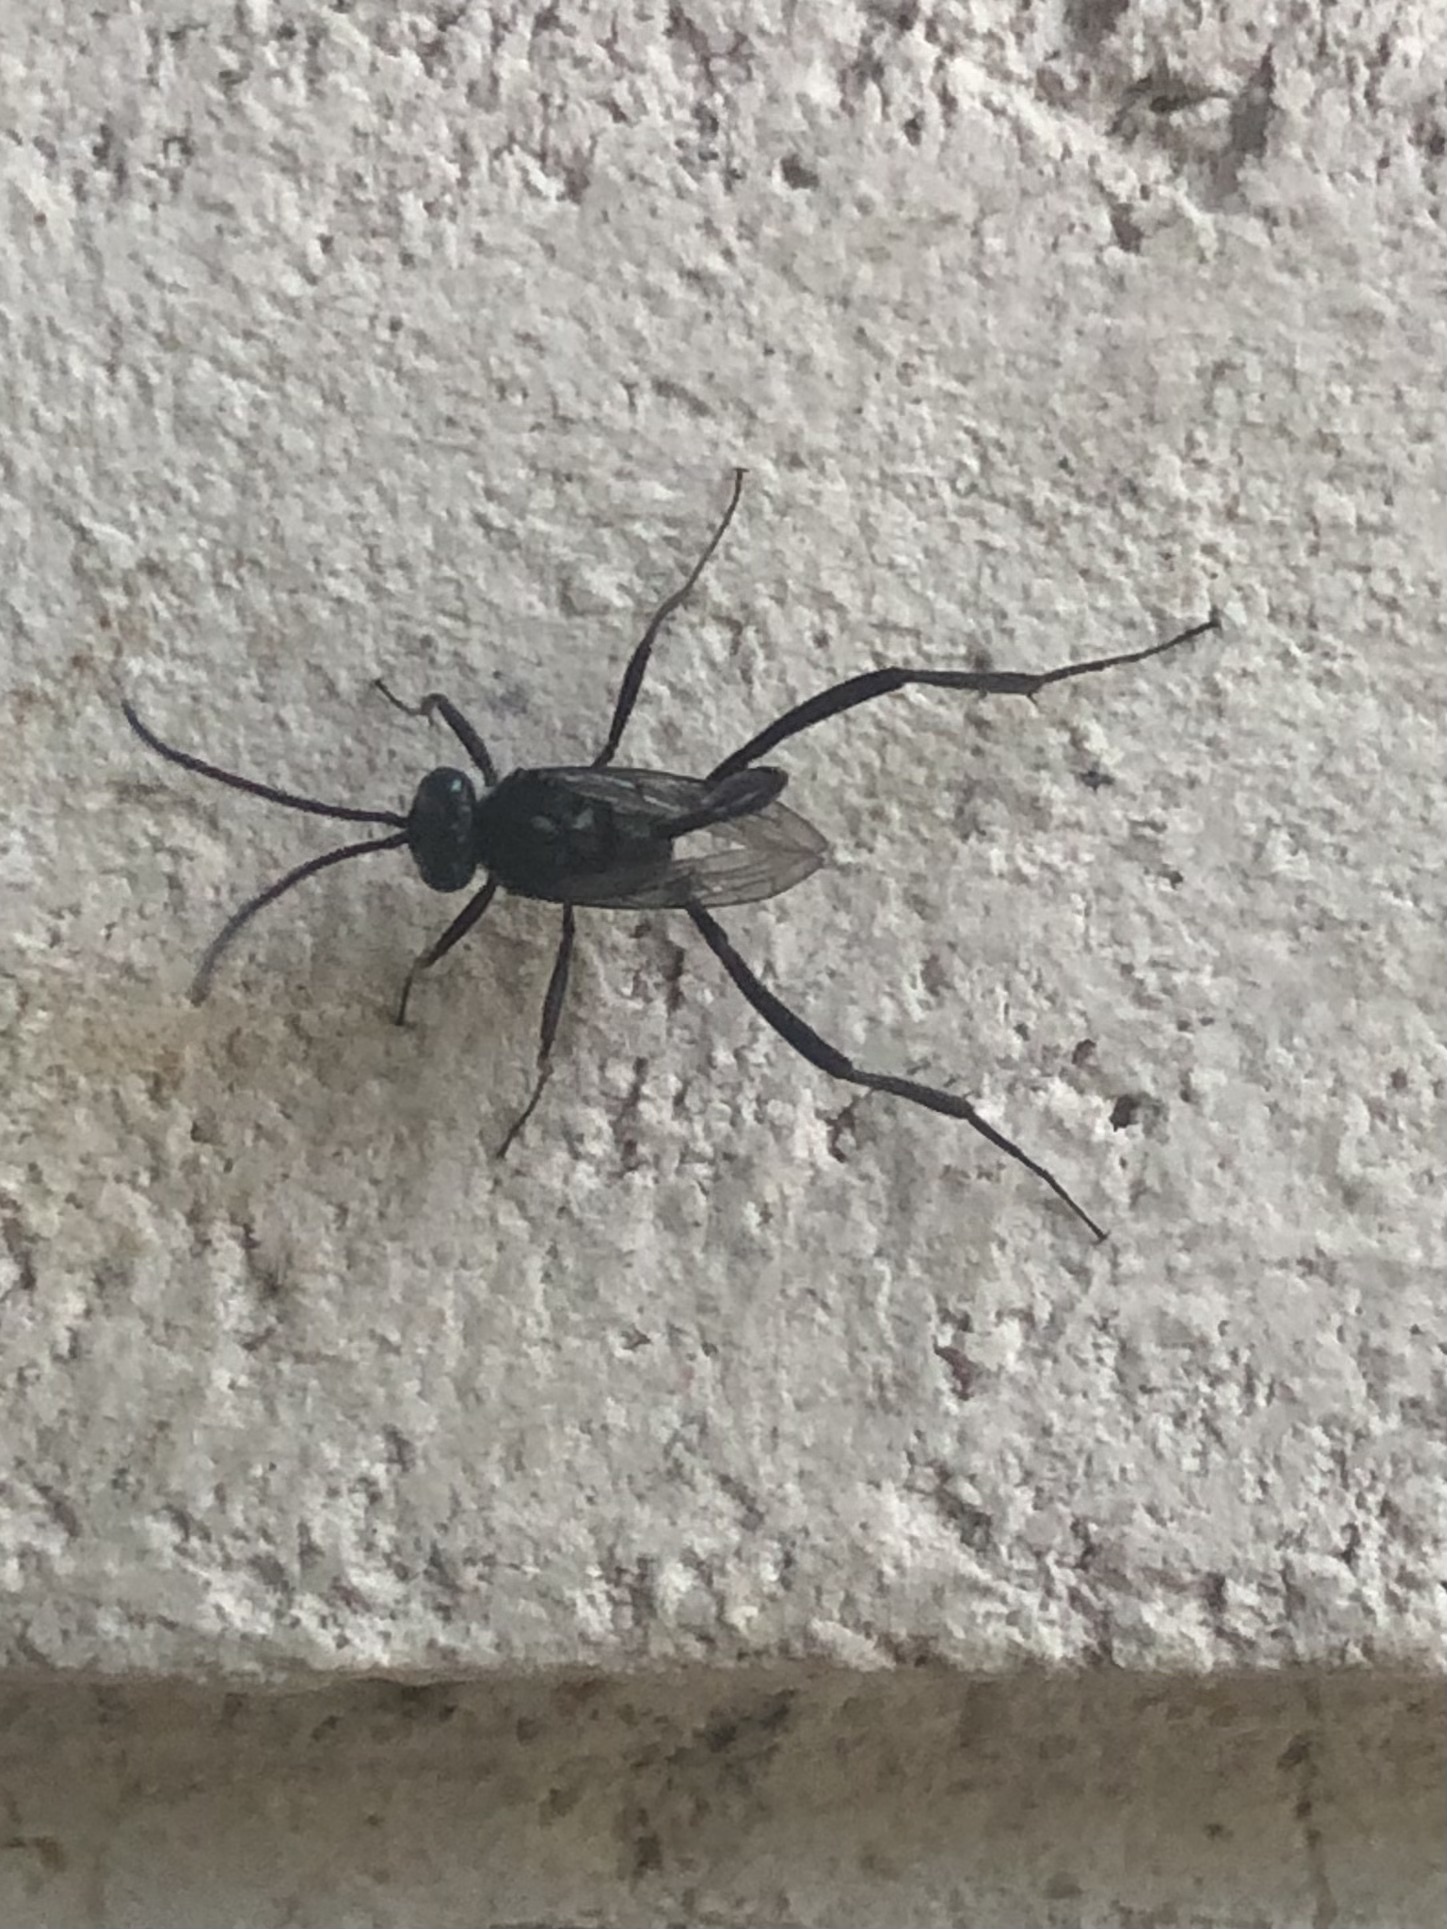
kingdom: Animalia
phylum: Arthropoda
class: Insecta
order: Hymenoptera
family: Evaniidae
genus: Evania
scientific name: Evania appendigaster
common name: Ensign wasp
